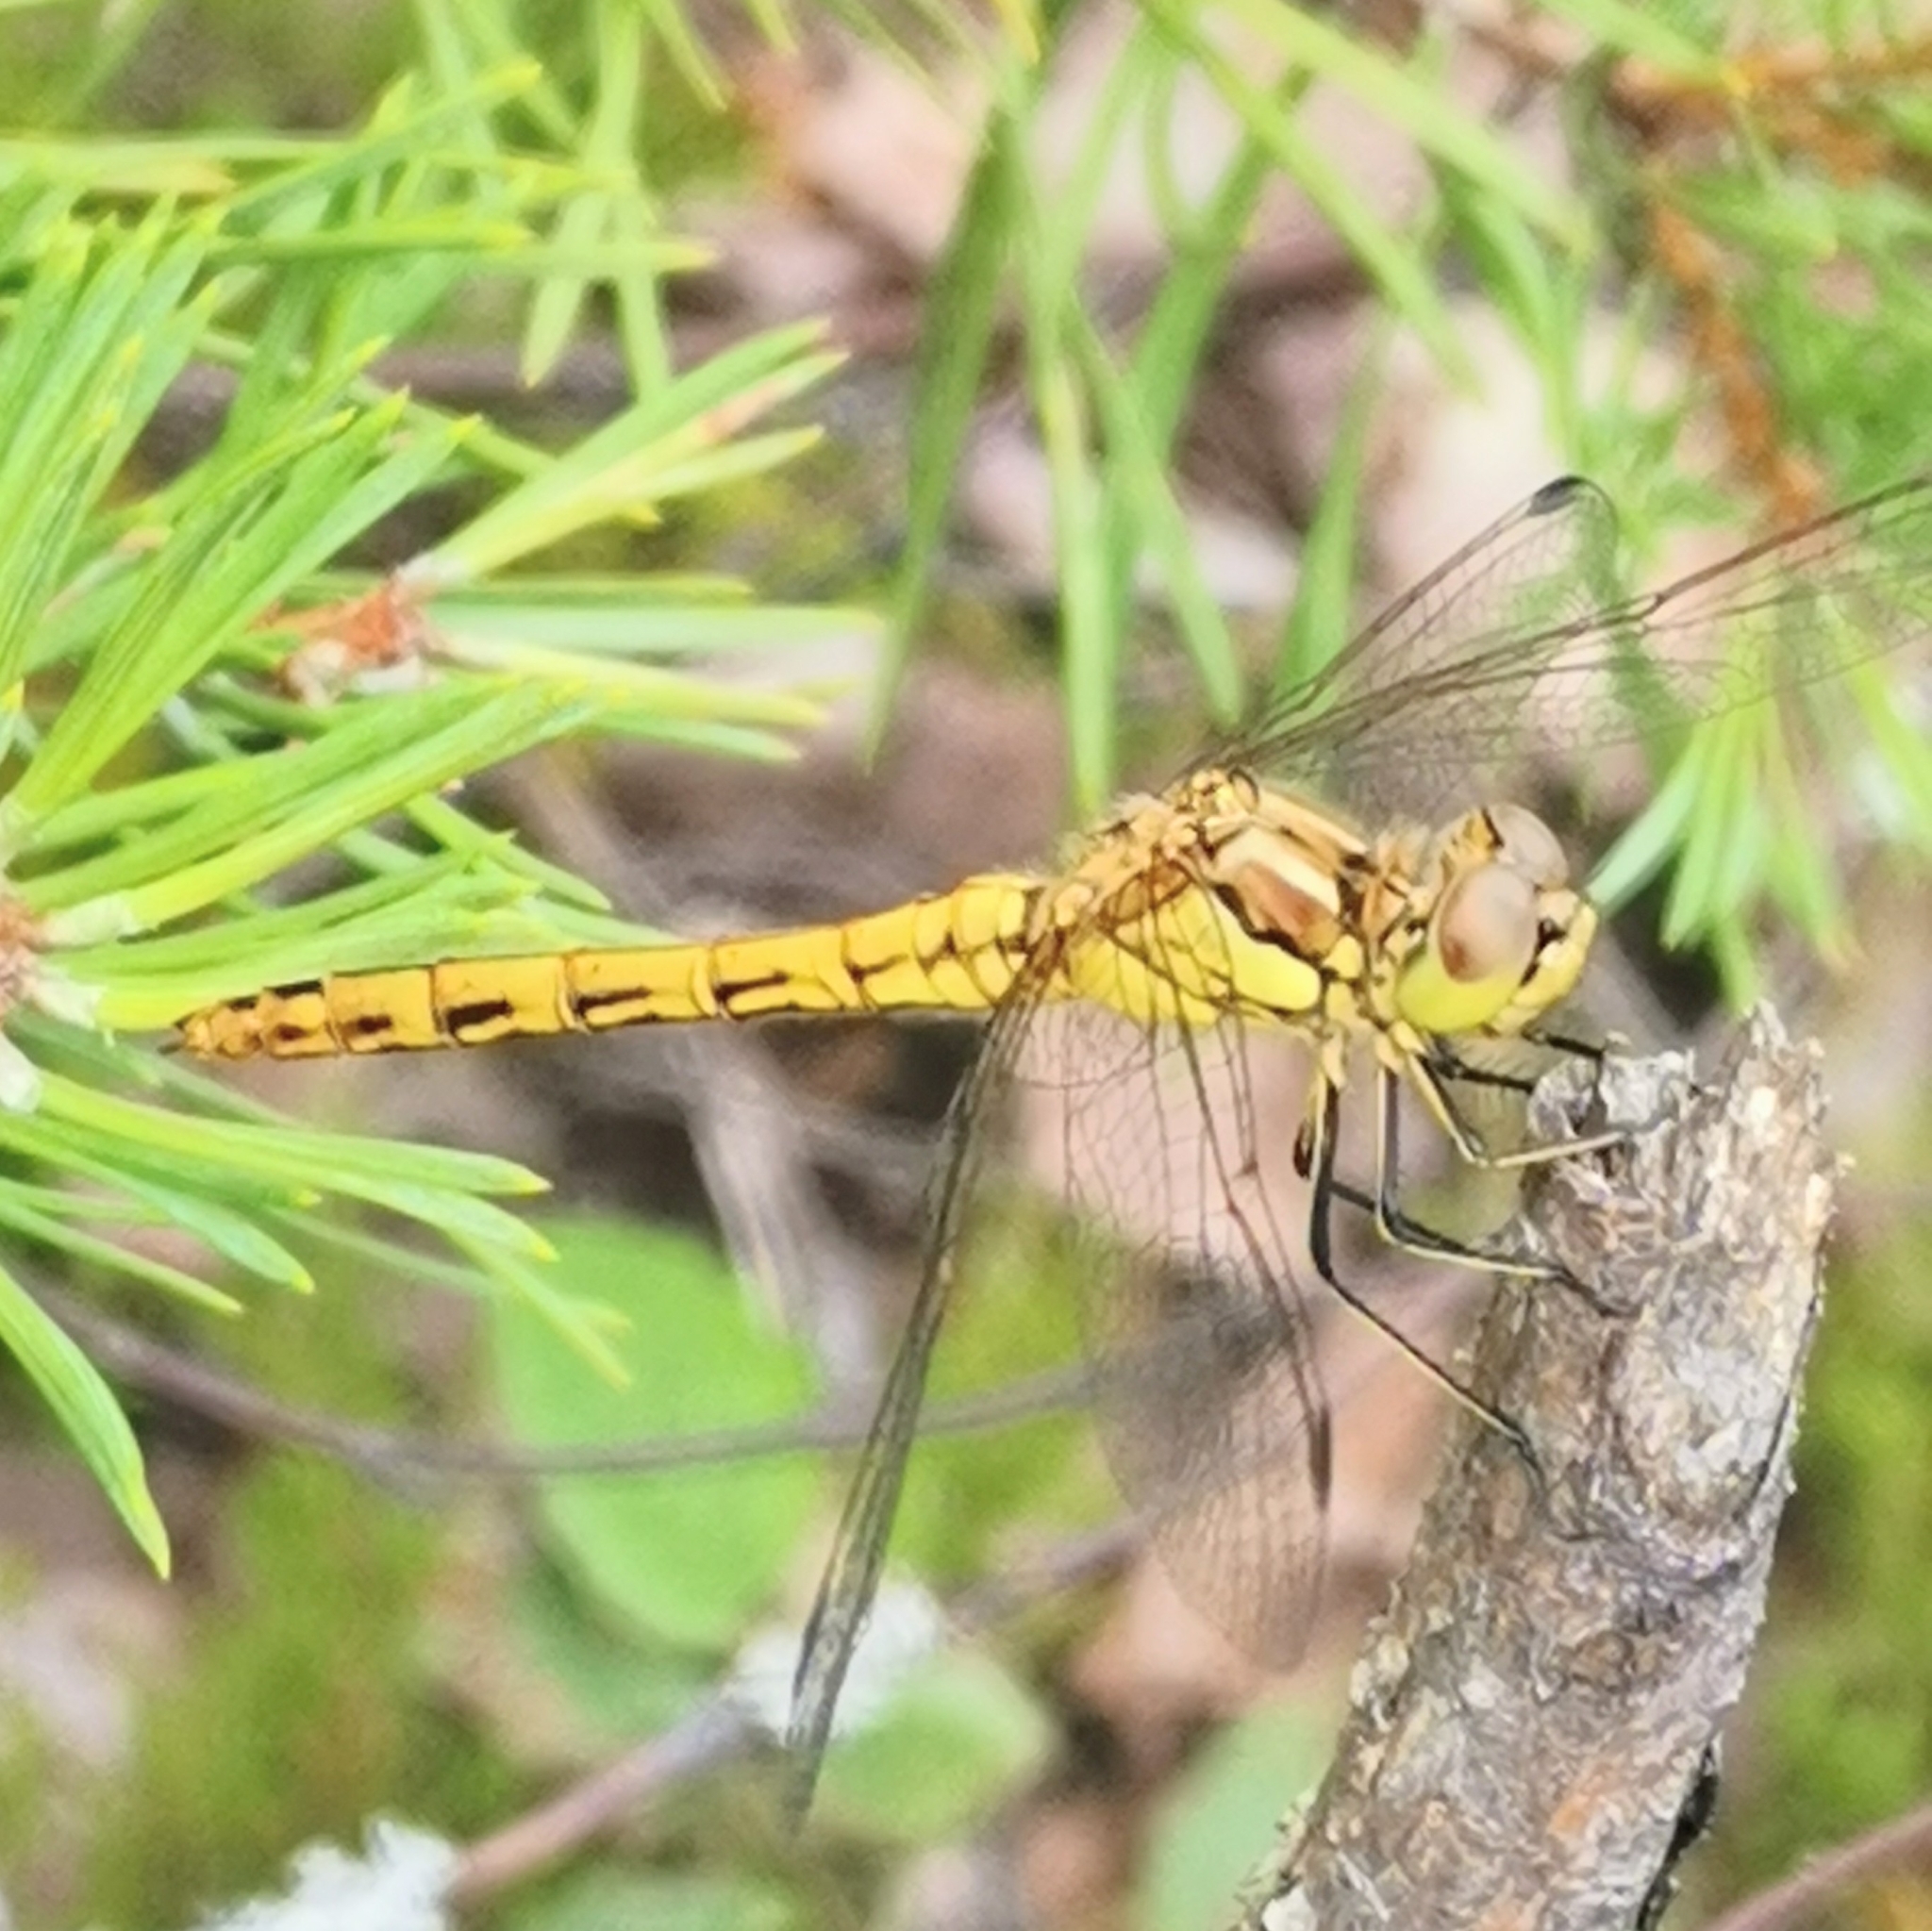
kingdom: Animalia
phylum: Arthropoda
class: Insecta
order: Odonata
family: Libellulidae
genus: Sympetrum
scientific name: Sympetrum vulgatum
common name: Vagrant darter
